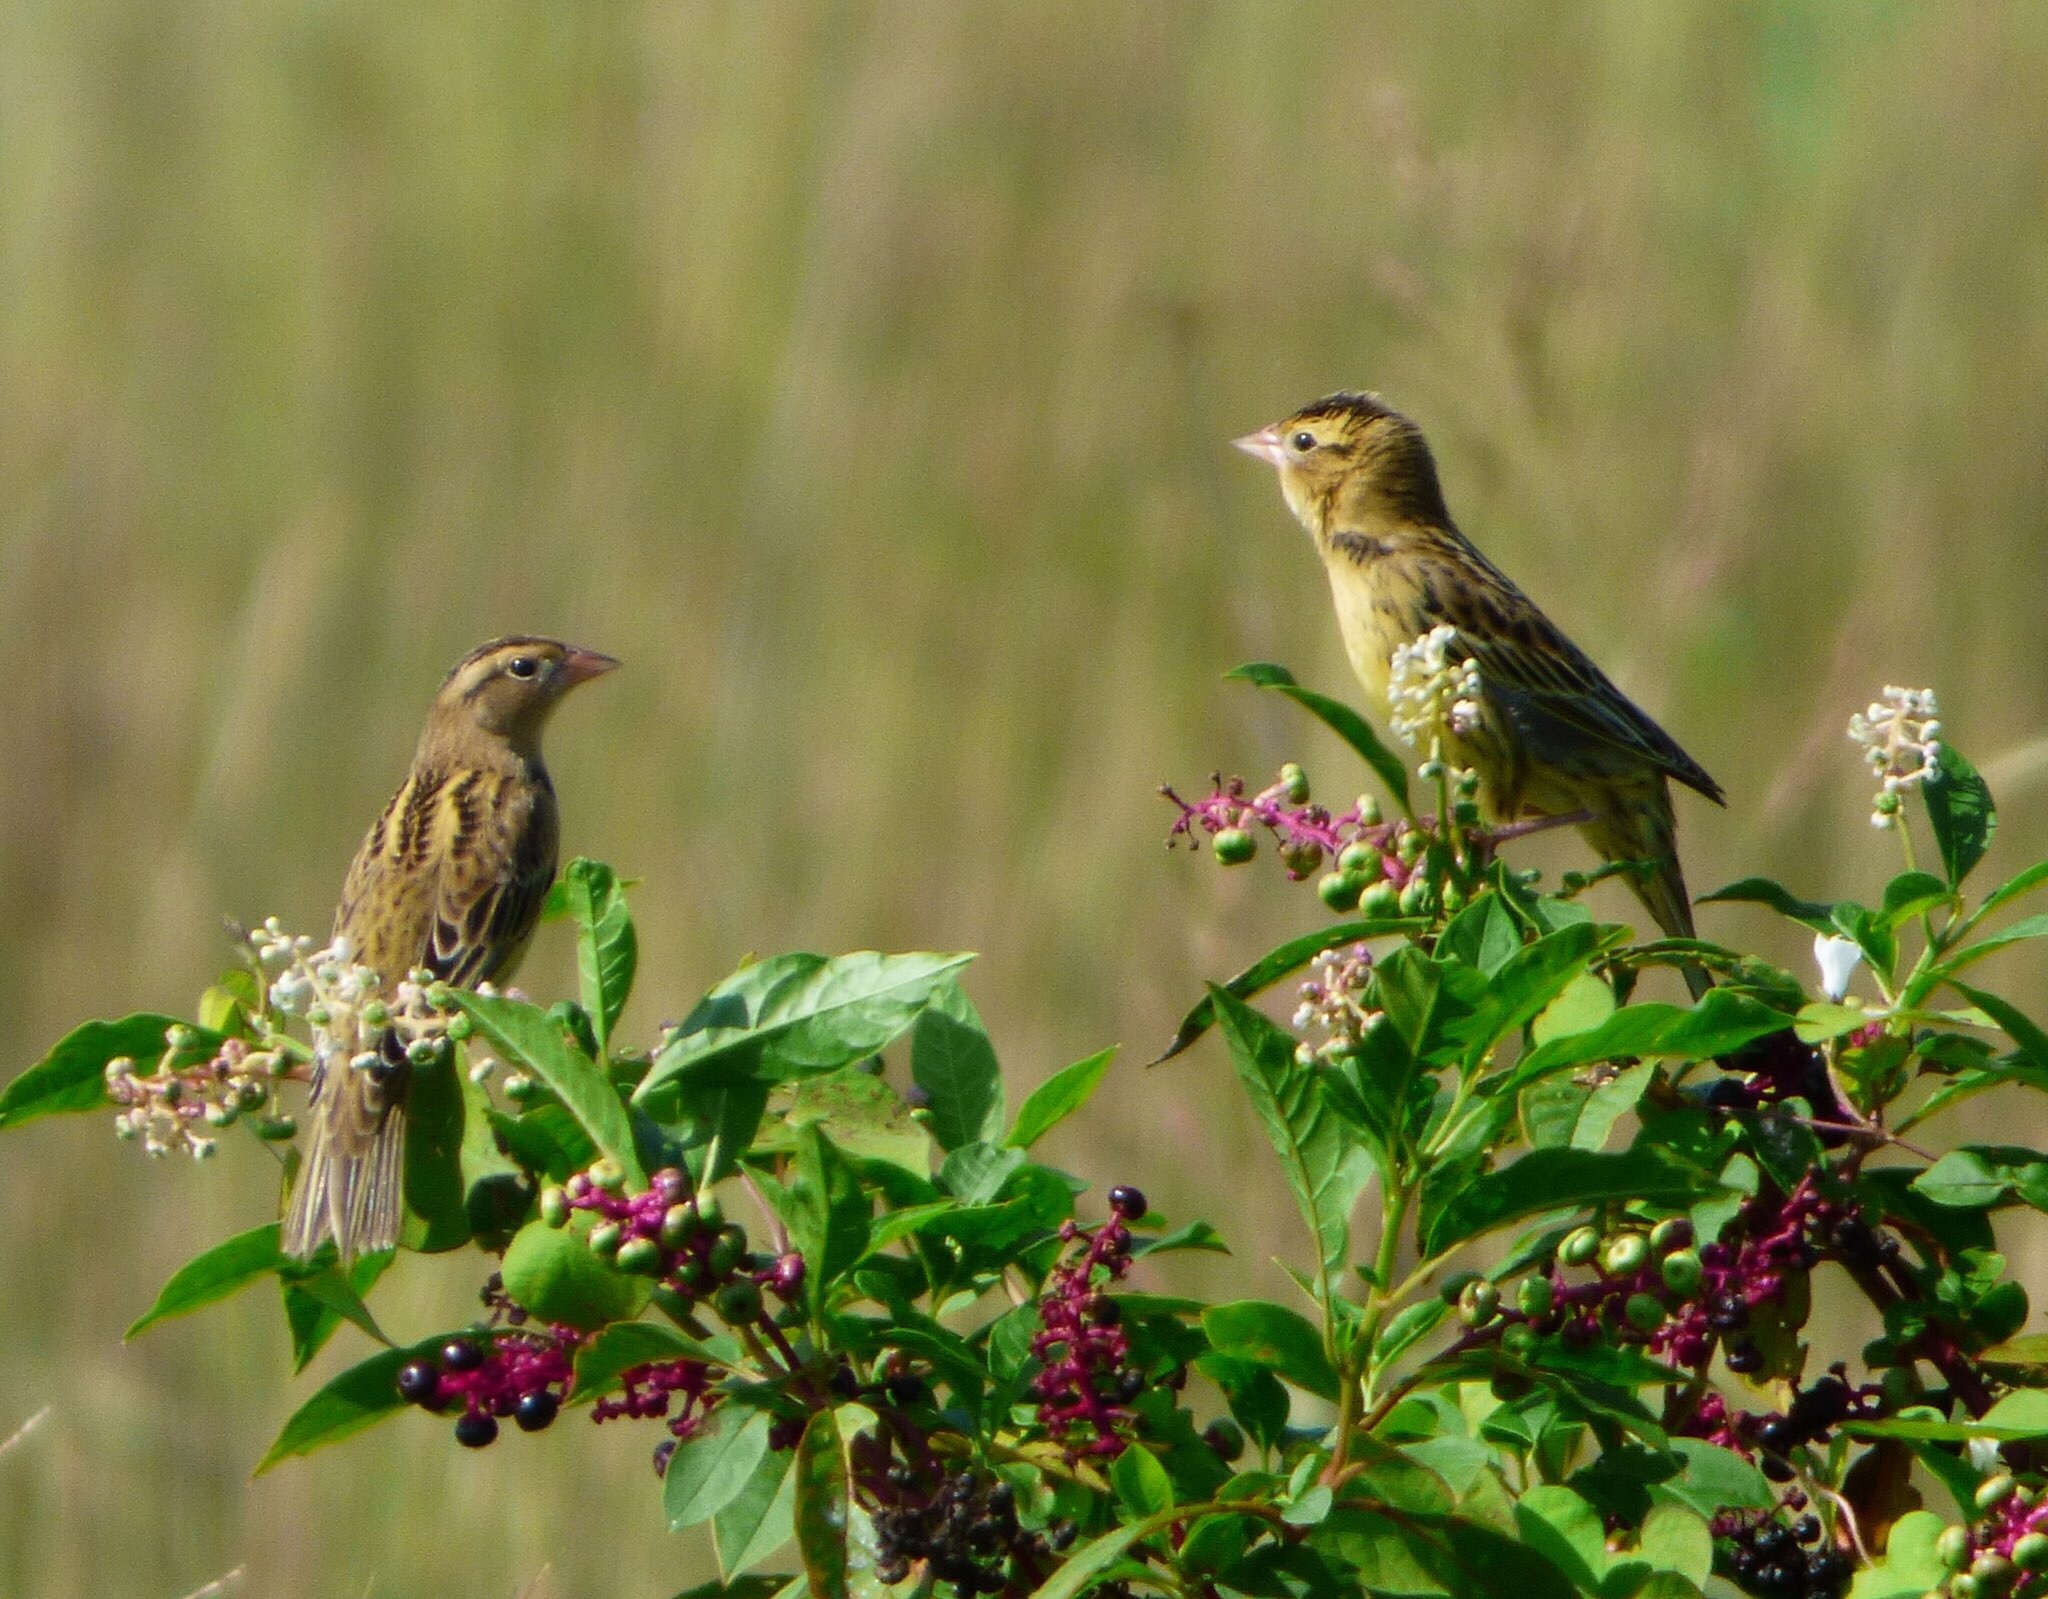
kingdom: Animalia
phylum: Chordata
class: Aves
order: Passeriformes
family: Icteridae
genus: Dolichonyx
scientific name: Dolichonyx oryzivorus
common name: Bobolink
